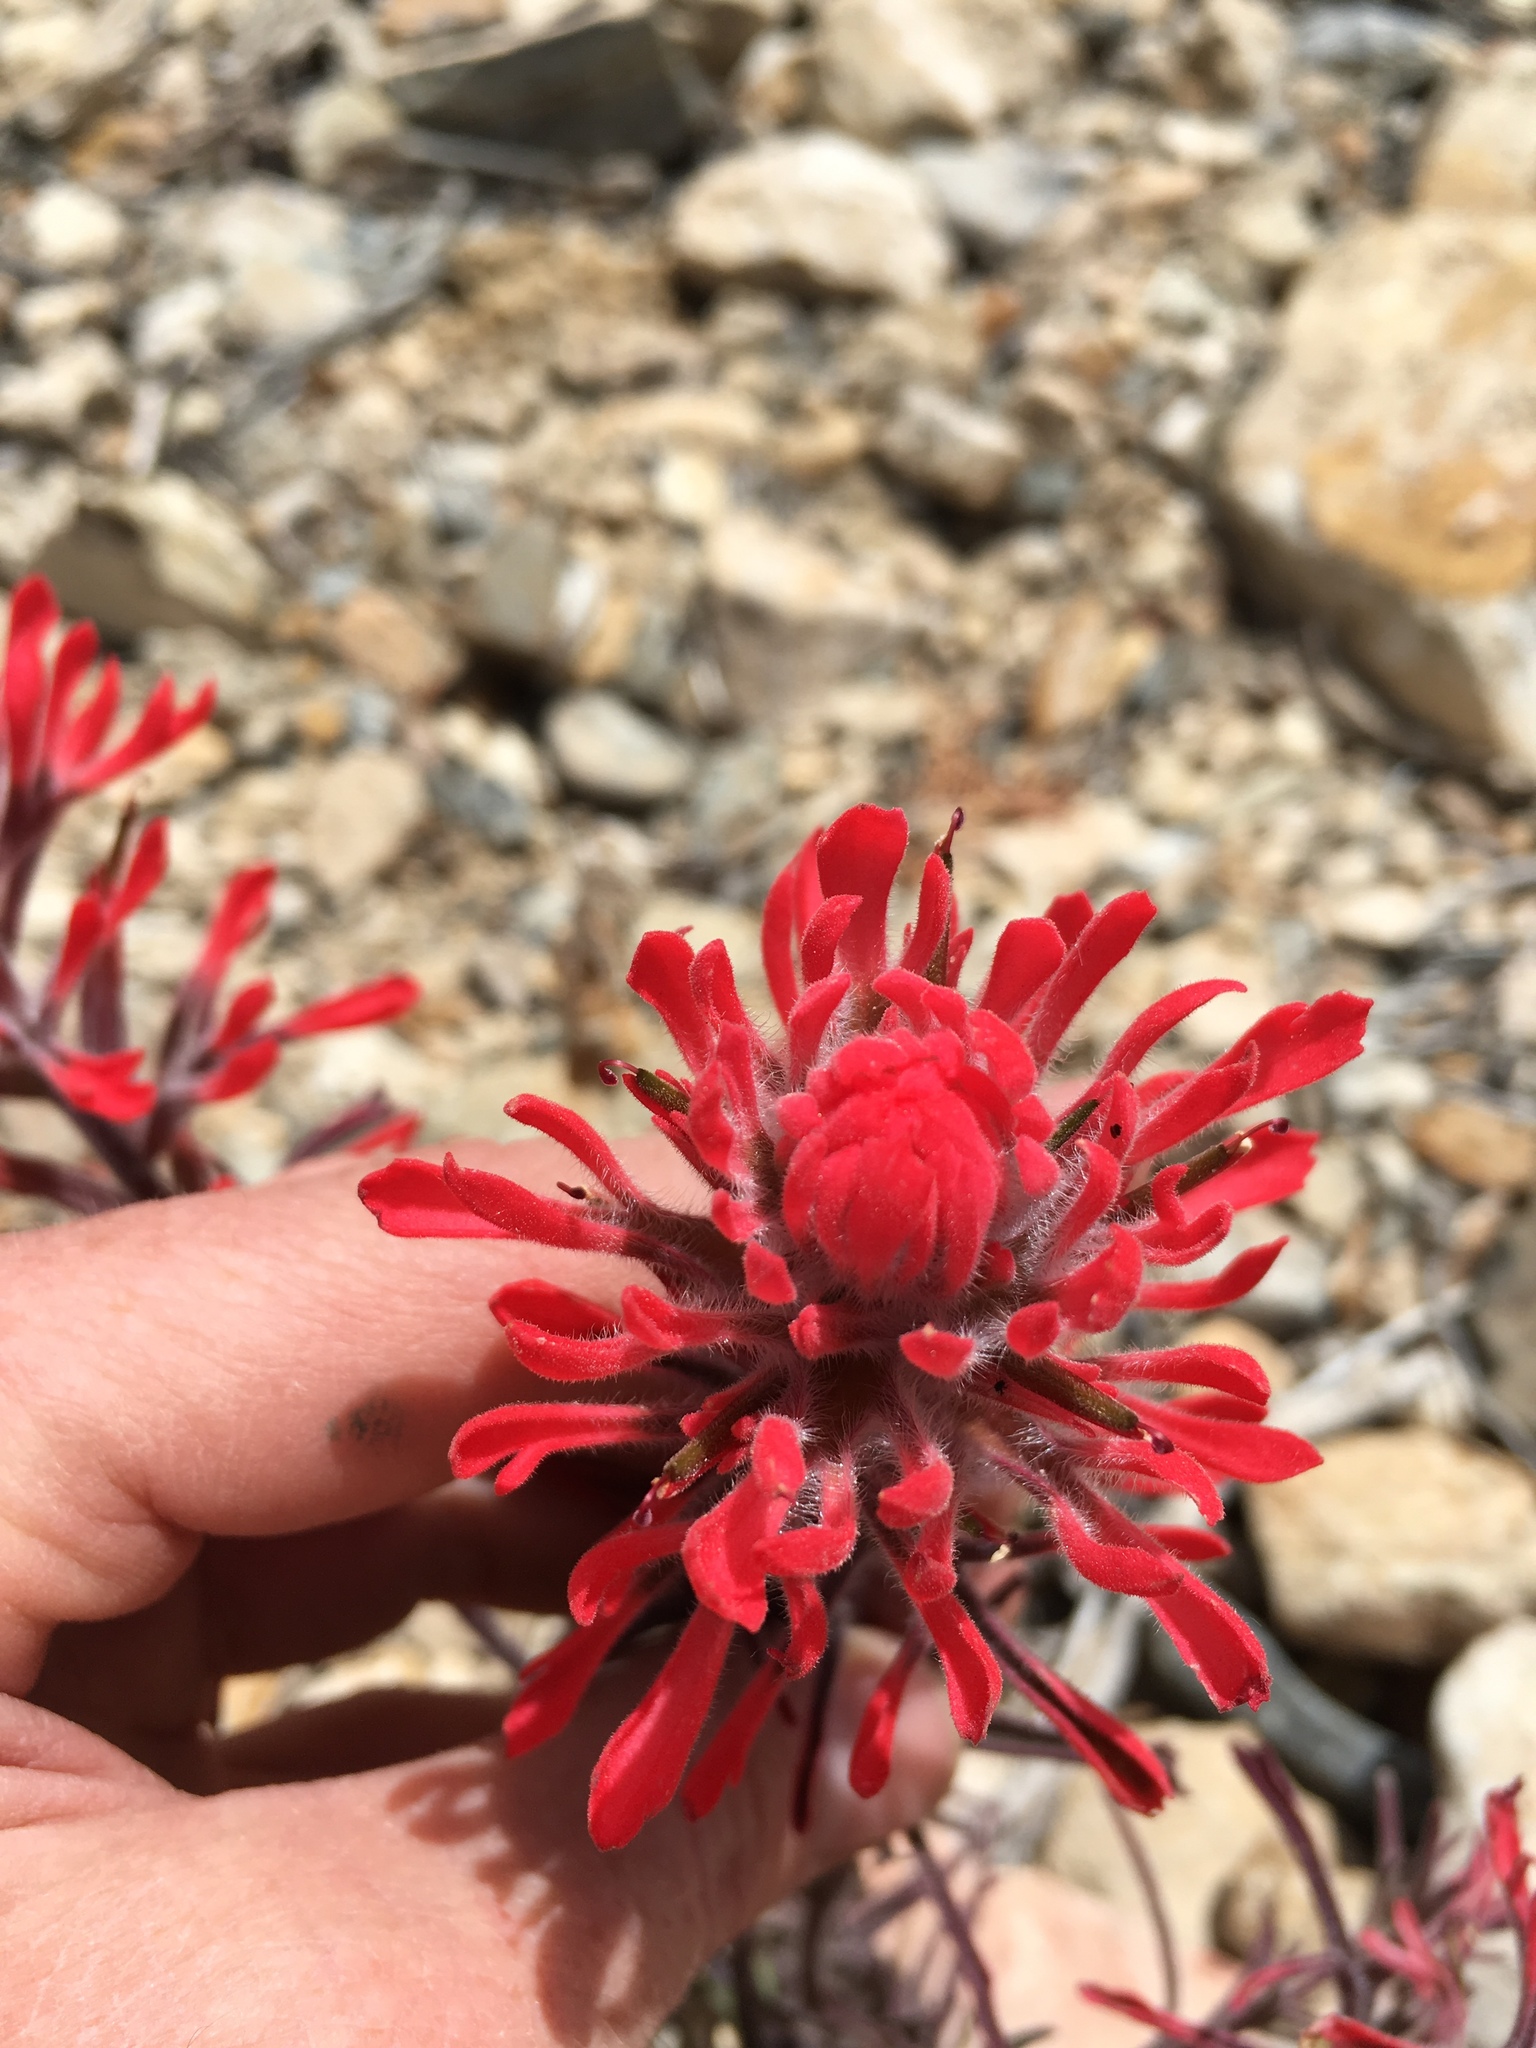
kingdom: Plantae
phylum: Tracheophyta
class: Magnoliopsida
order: Lamiales
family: Orobanchaceae
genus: Castilleja
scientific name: Castilleja chromosa
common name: Desert paintbrush
